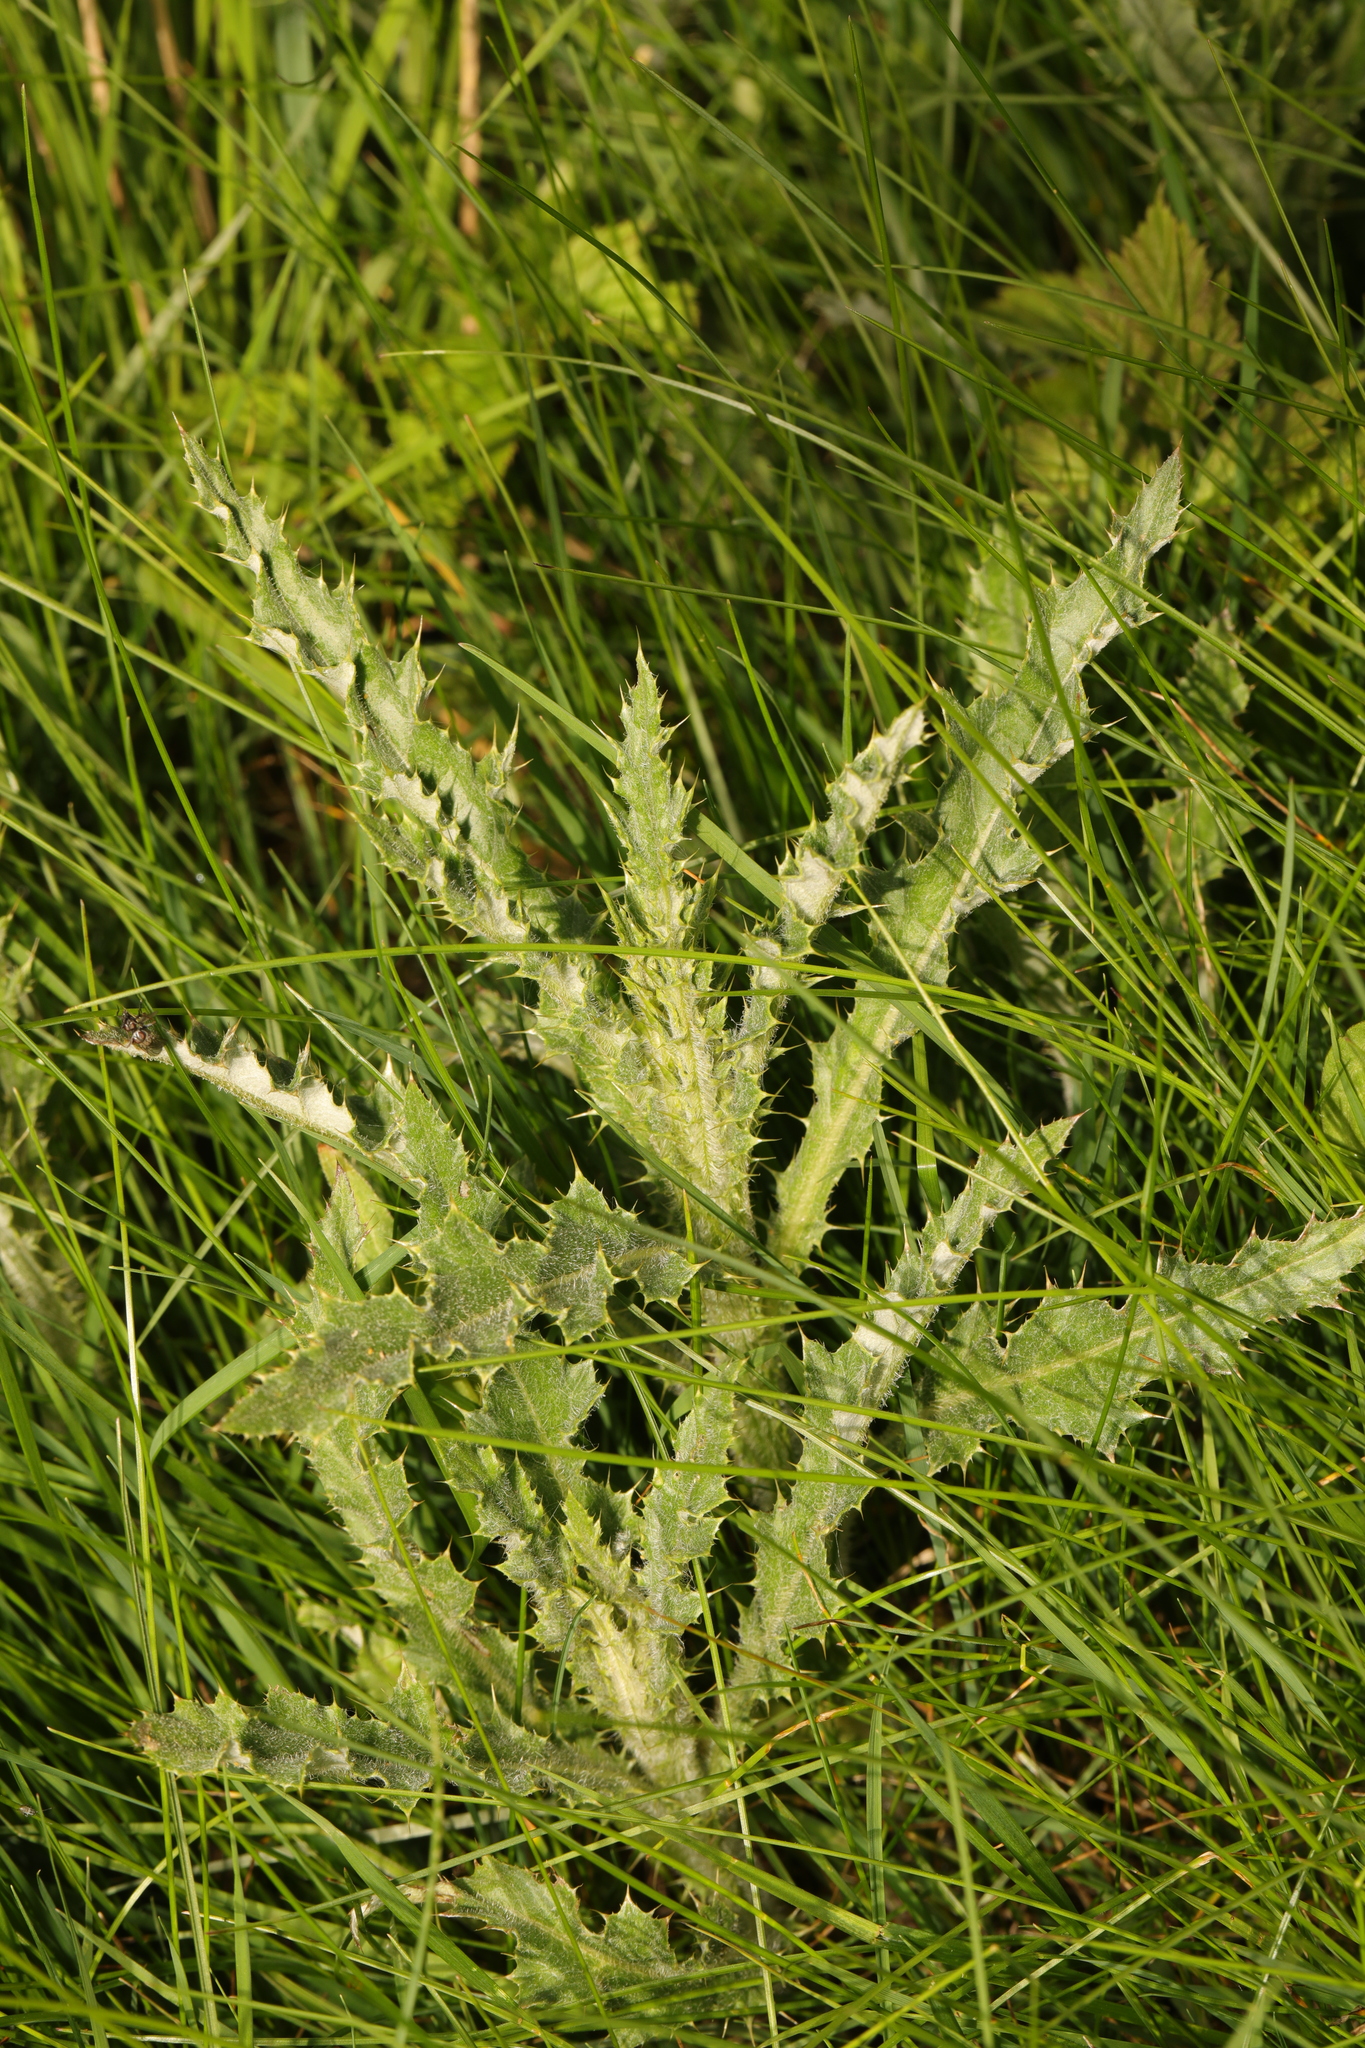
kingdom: Plantae
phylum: Tracheophyta
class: Magnoliopsida
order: Asterales
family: Asteraceae
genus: Cirsium
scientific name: Cirsium arvense
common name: Creeping thistle
